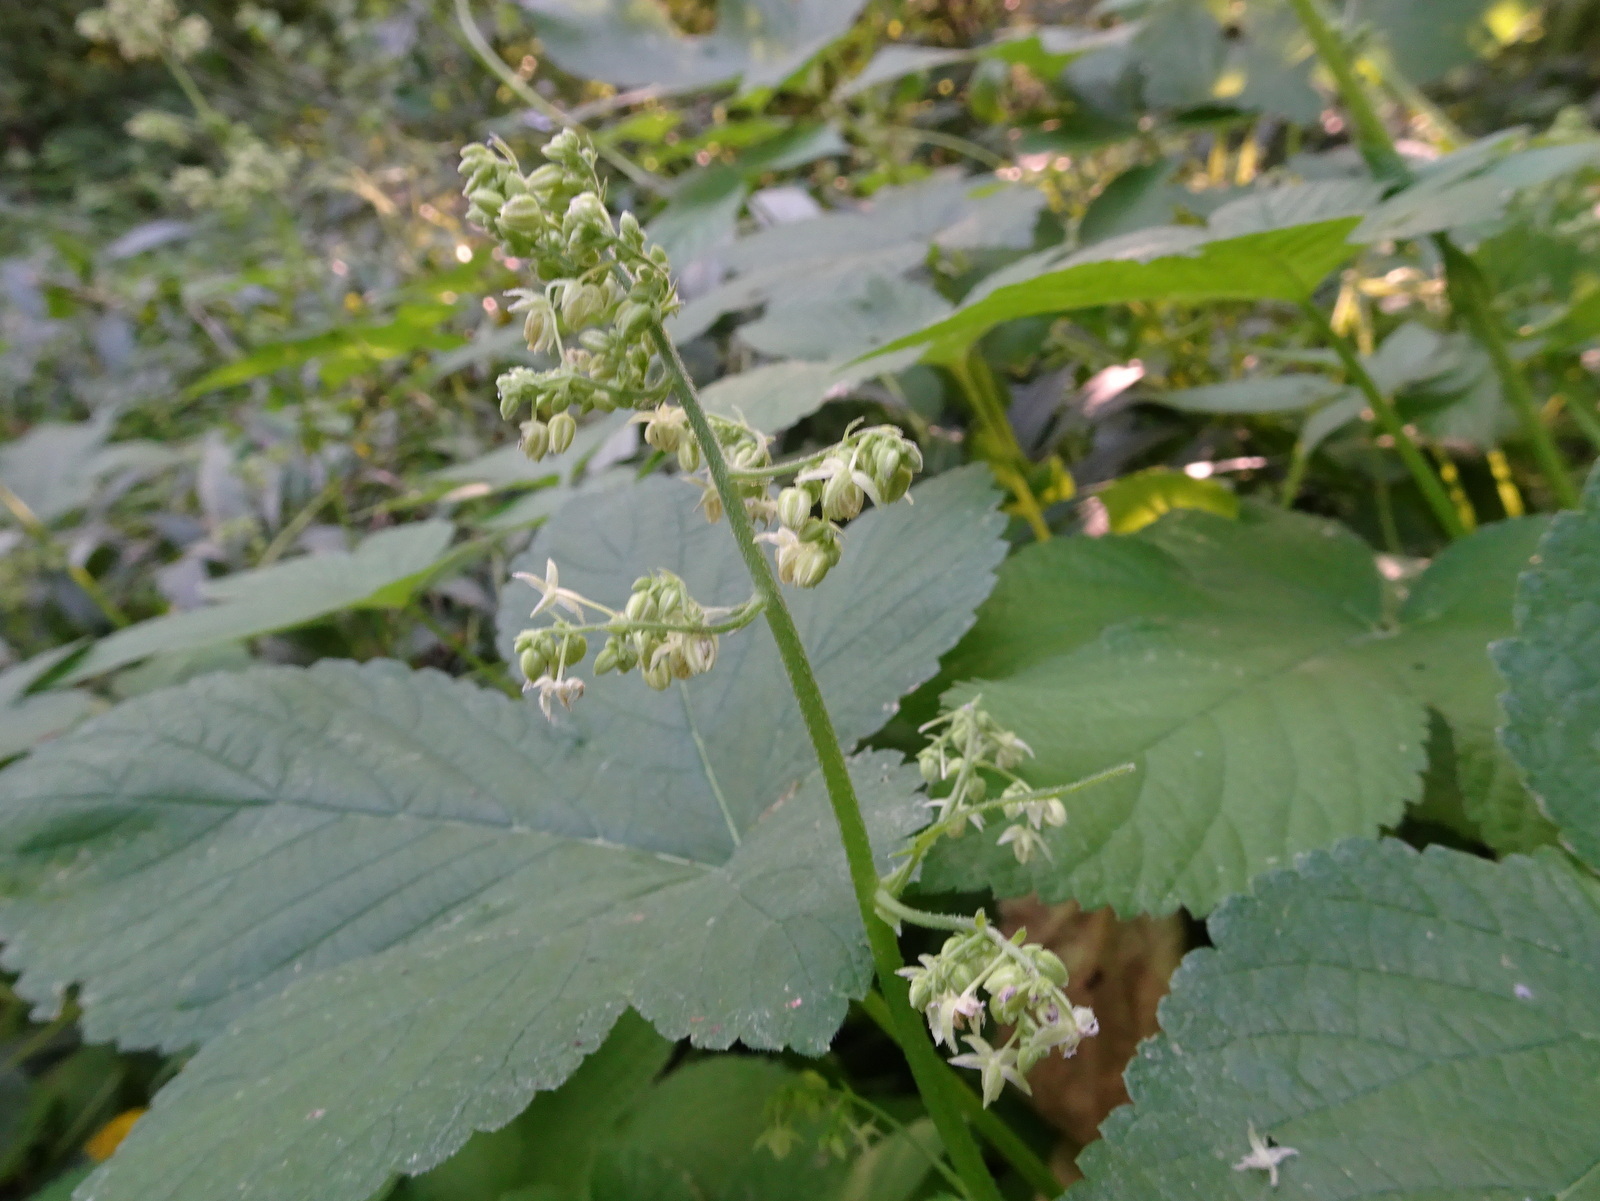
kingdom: Plantae
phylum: Tracheophyta
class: Magnoliopsida
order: Rosales
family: Cannabaceae
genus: Humulus
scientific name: Humulus scandens
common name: Japanese hop
